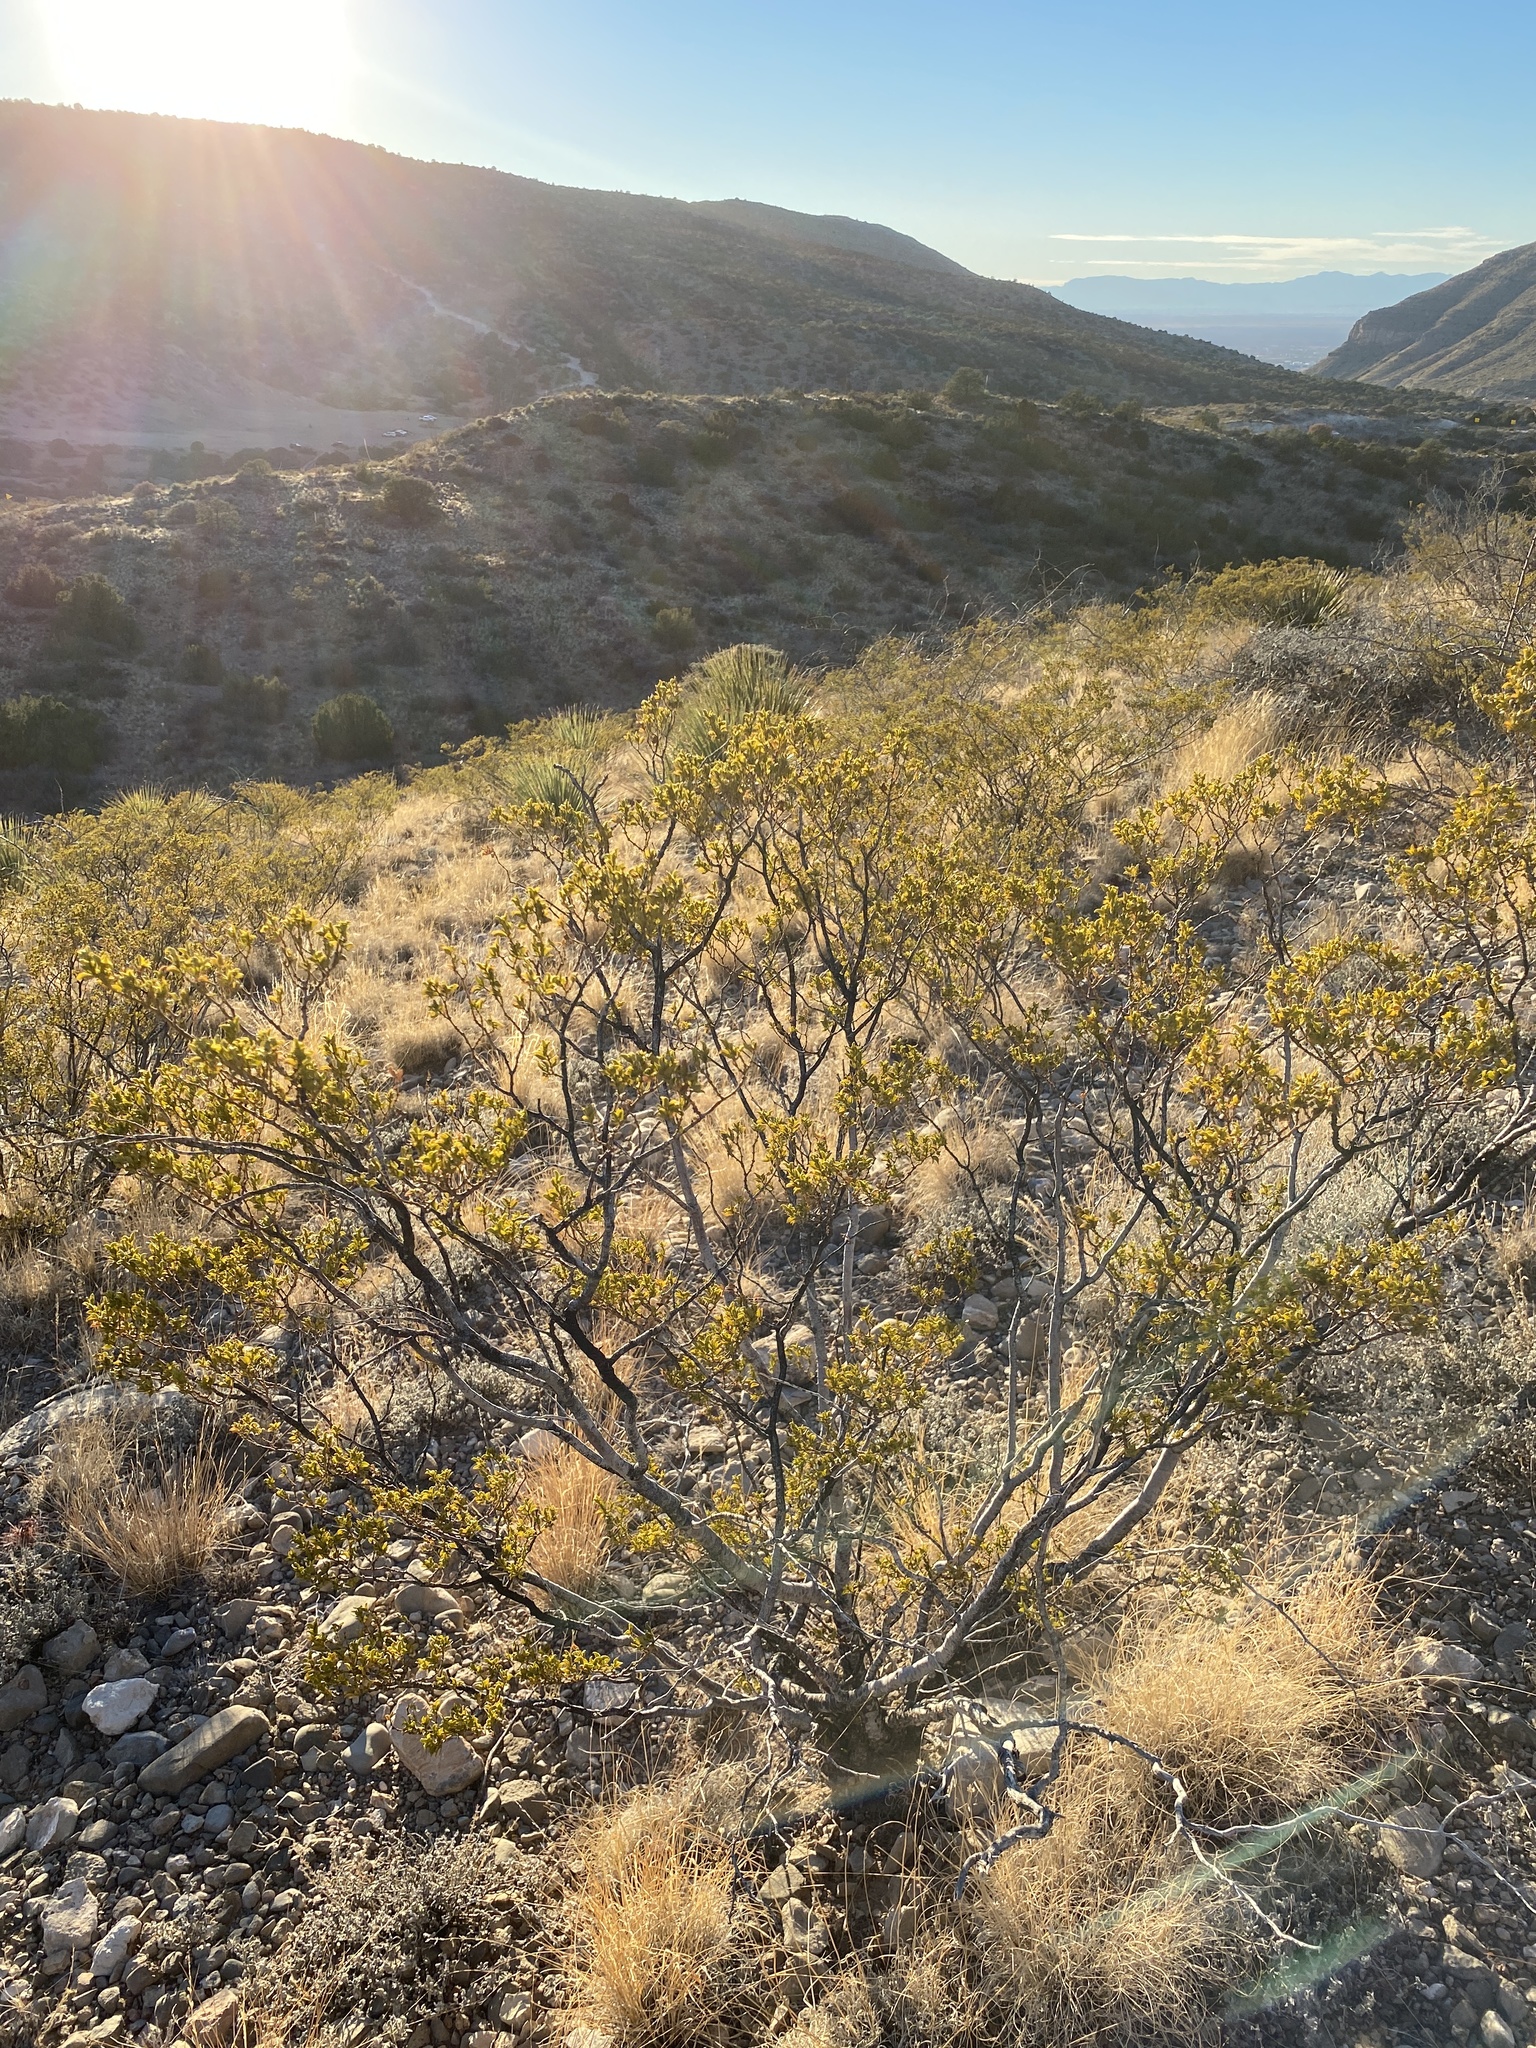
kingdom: Plantae
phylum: Tracheophyta
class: Magnoliopsida
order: Zygophyllales
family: Zygophyllaceae
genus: Larrea
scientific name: Larrea tridentata
